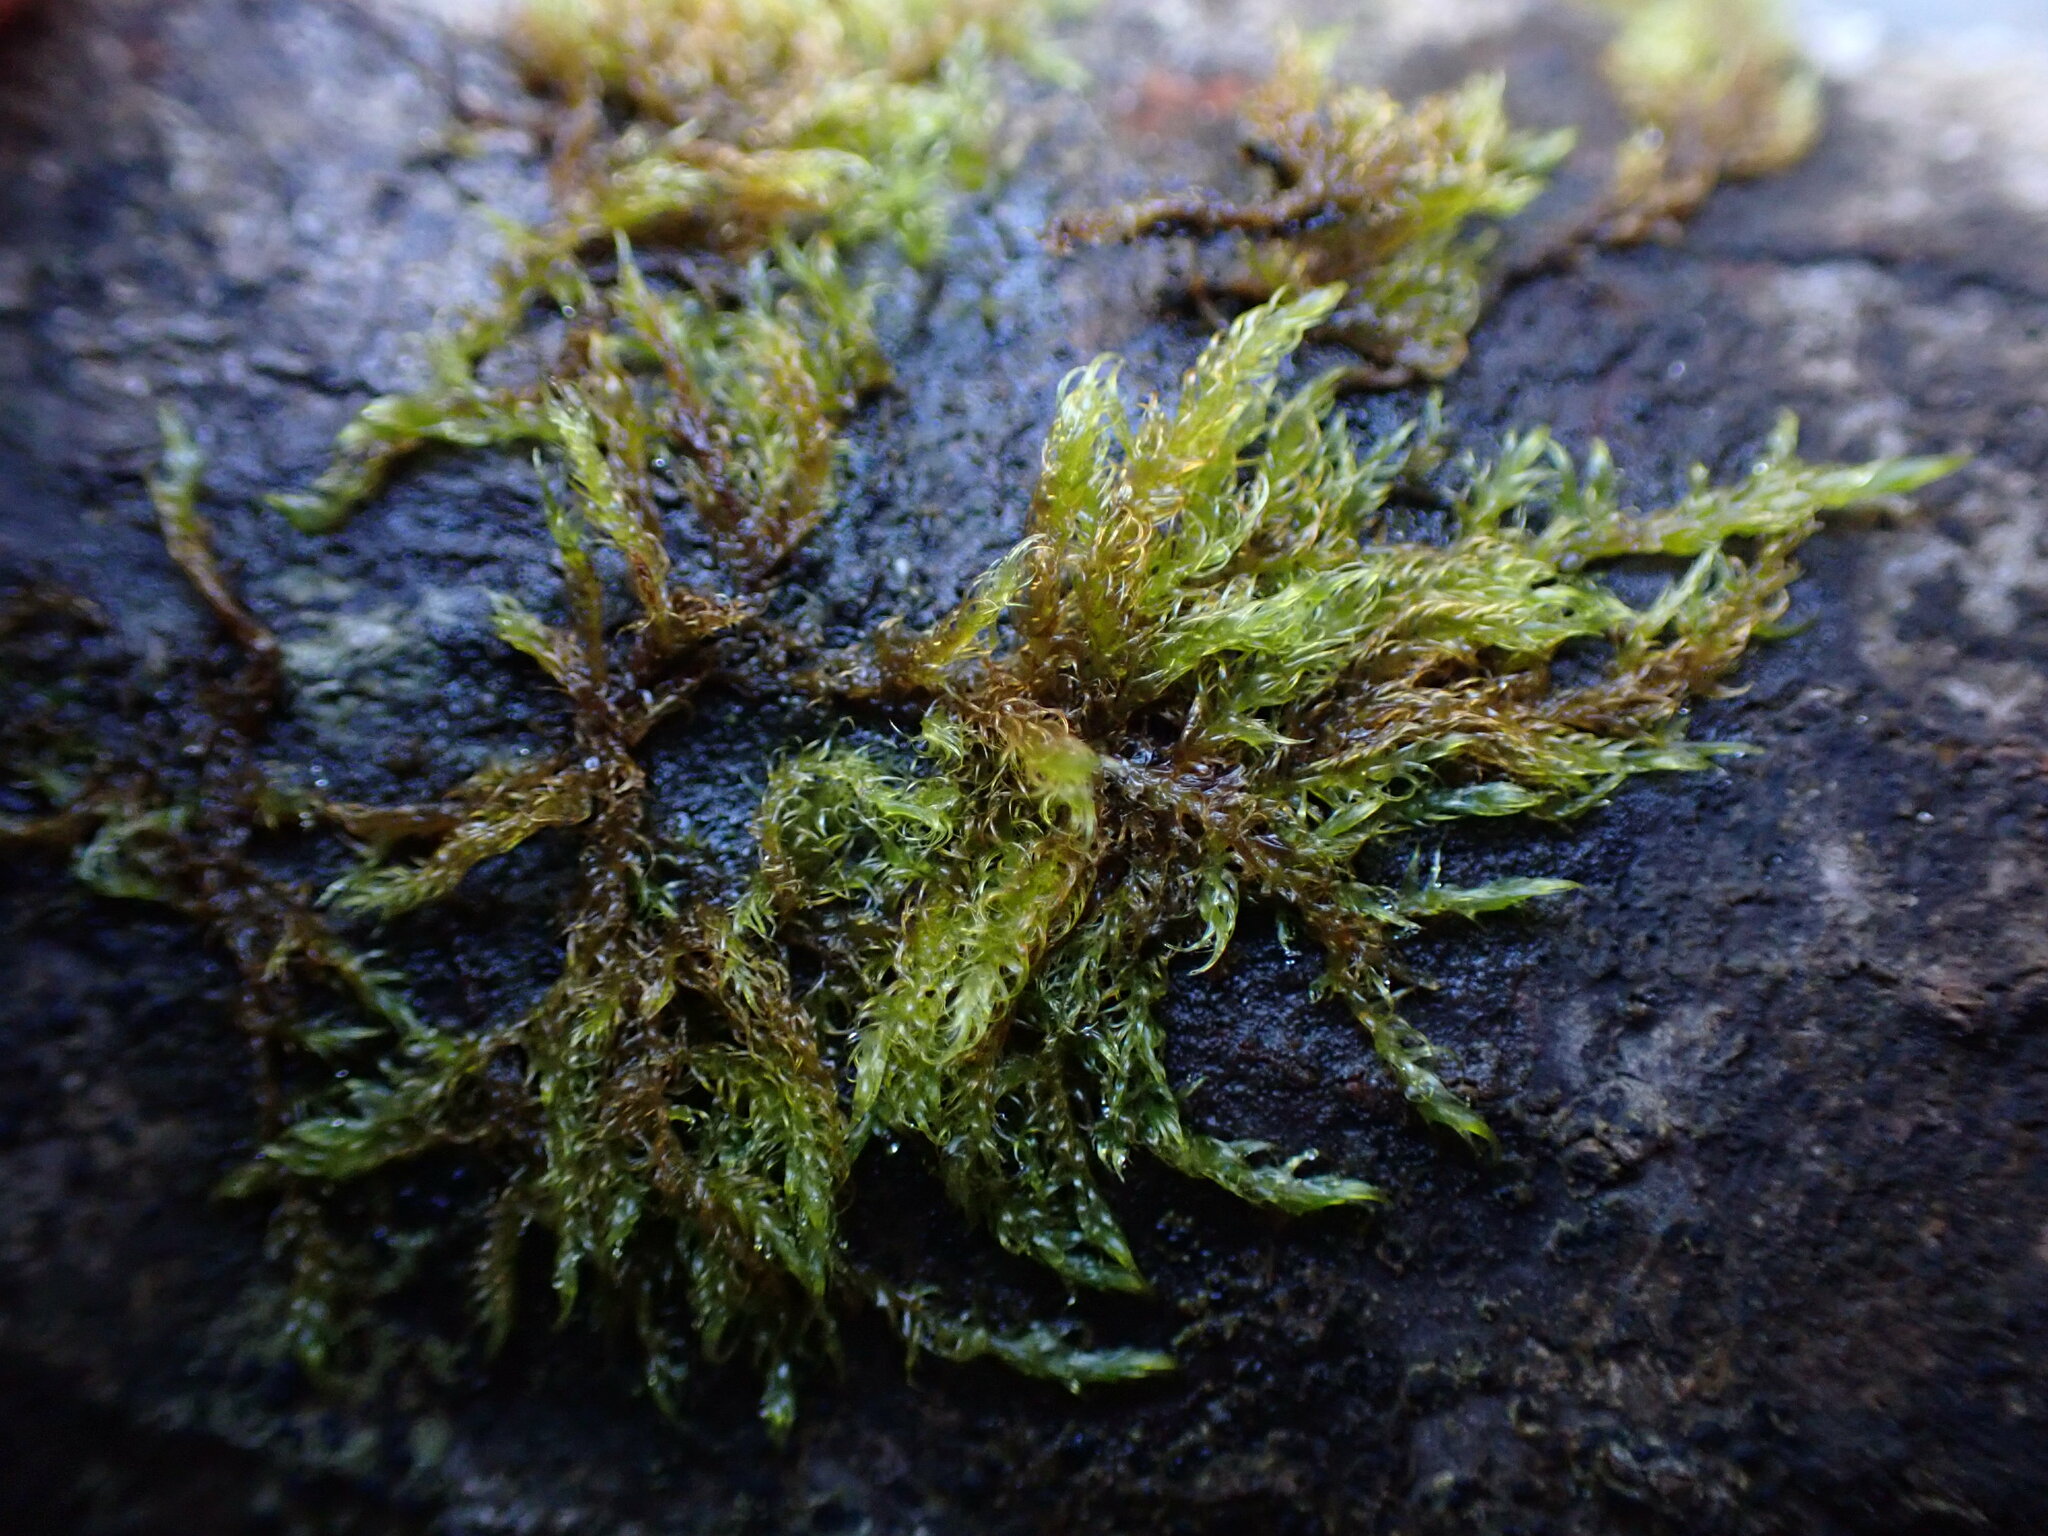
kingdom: Plantae
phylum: Bryophyta
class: Bryopsida
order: Hypnales
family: Scorpidiaceae
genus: Sanionia
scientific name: Sanionia uncinata
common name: Sickle moss
